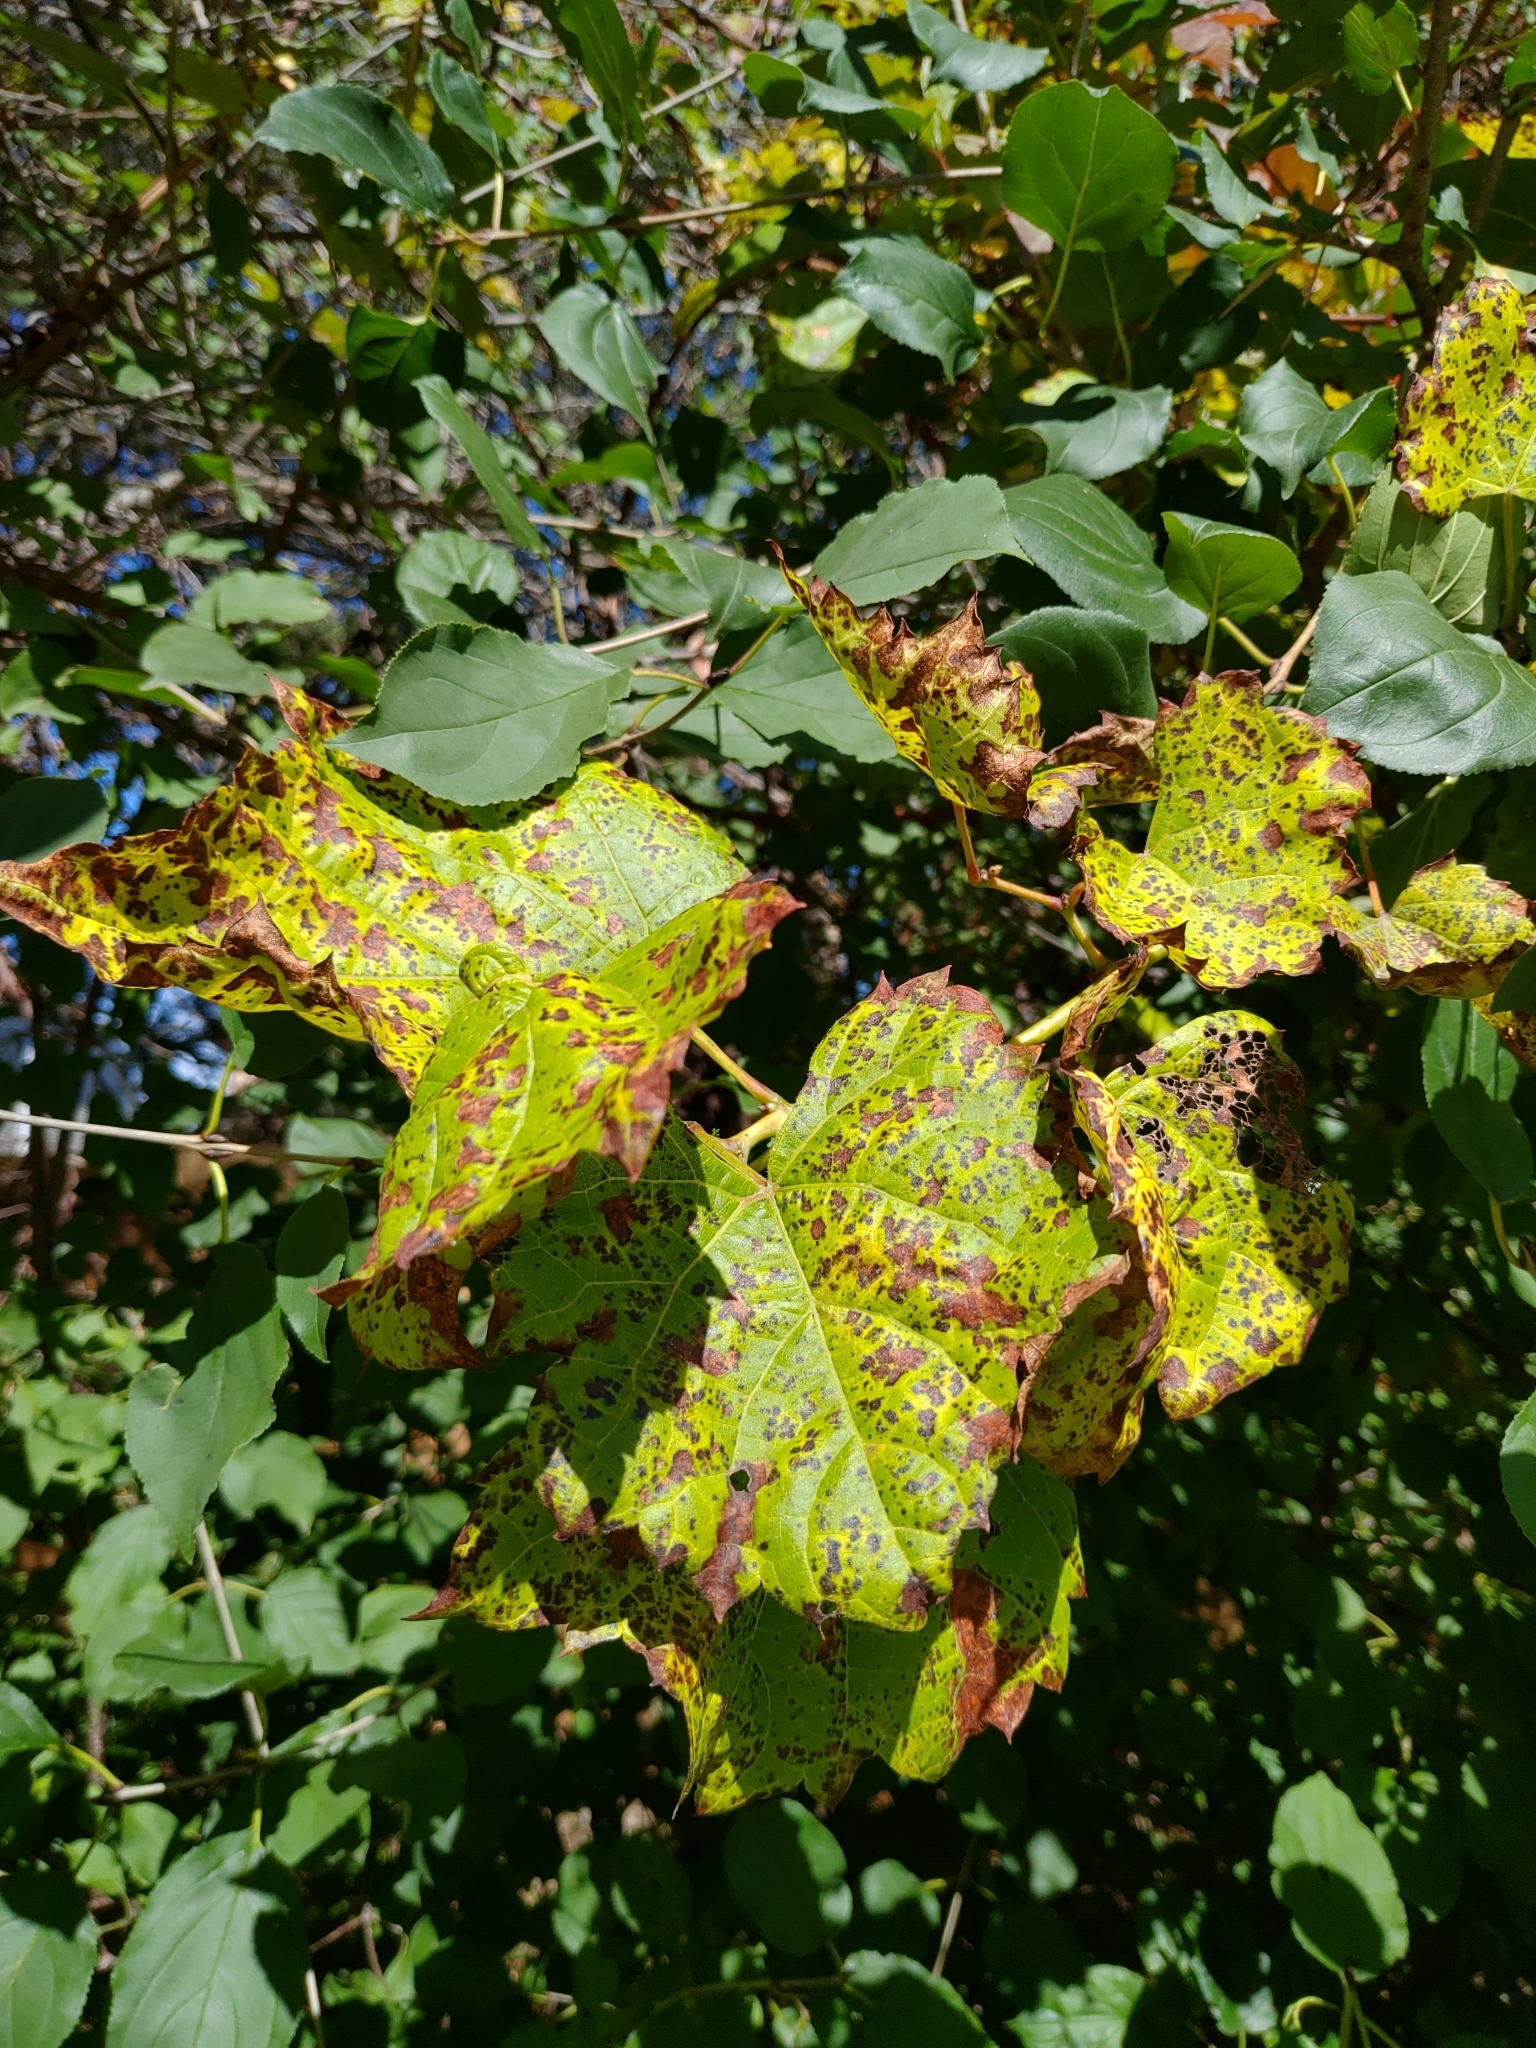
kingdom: Plantae
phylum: Tracheophyta
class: Magnoliopsida
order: Vitales
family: Vitaceae
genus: Vitis
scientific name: Vitis riparia
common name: Frost grape
